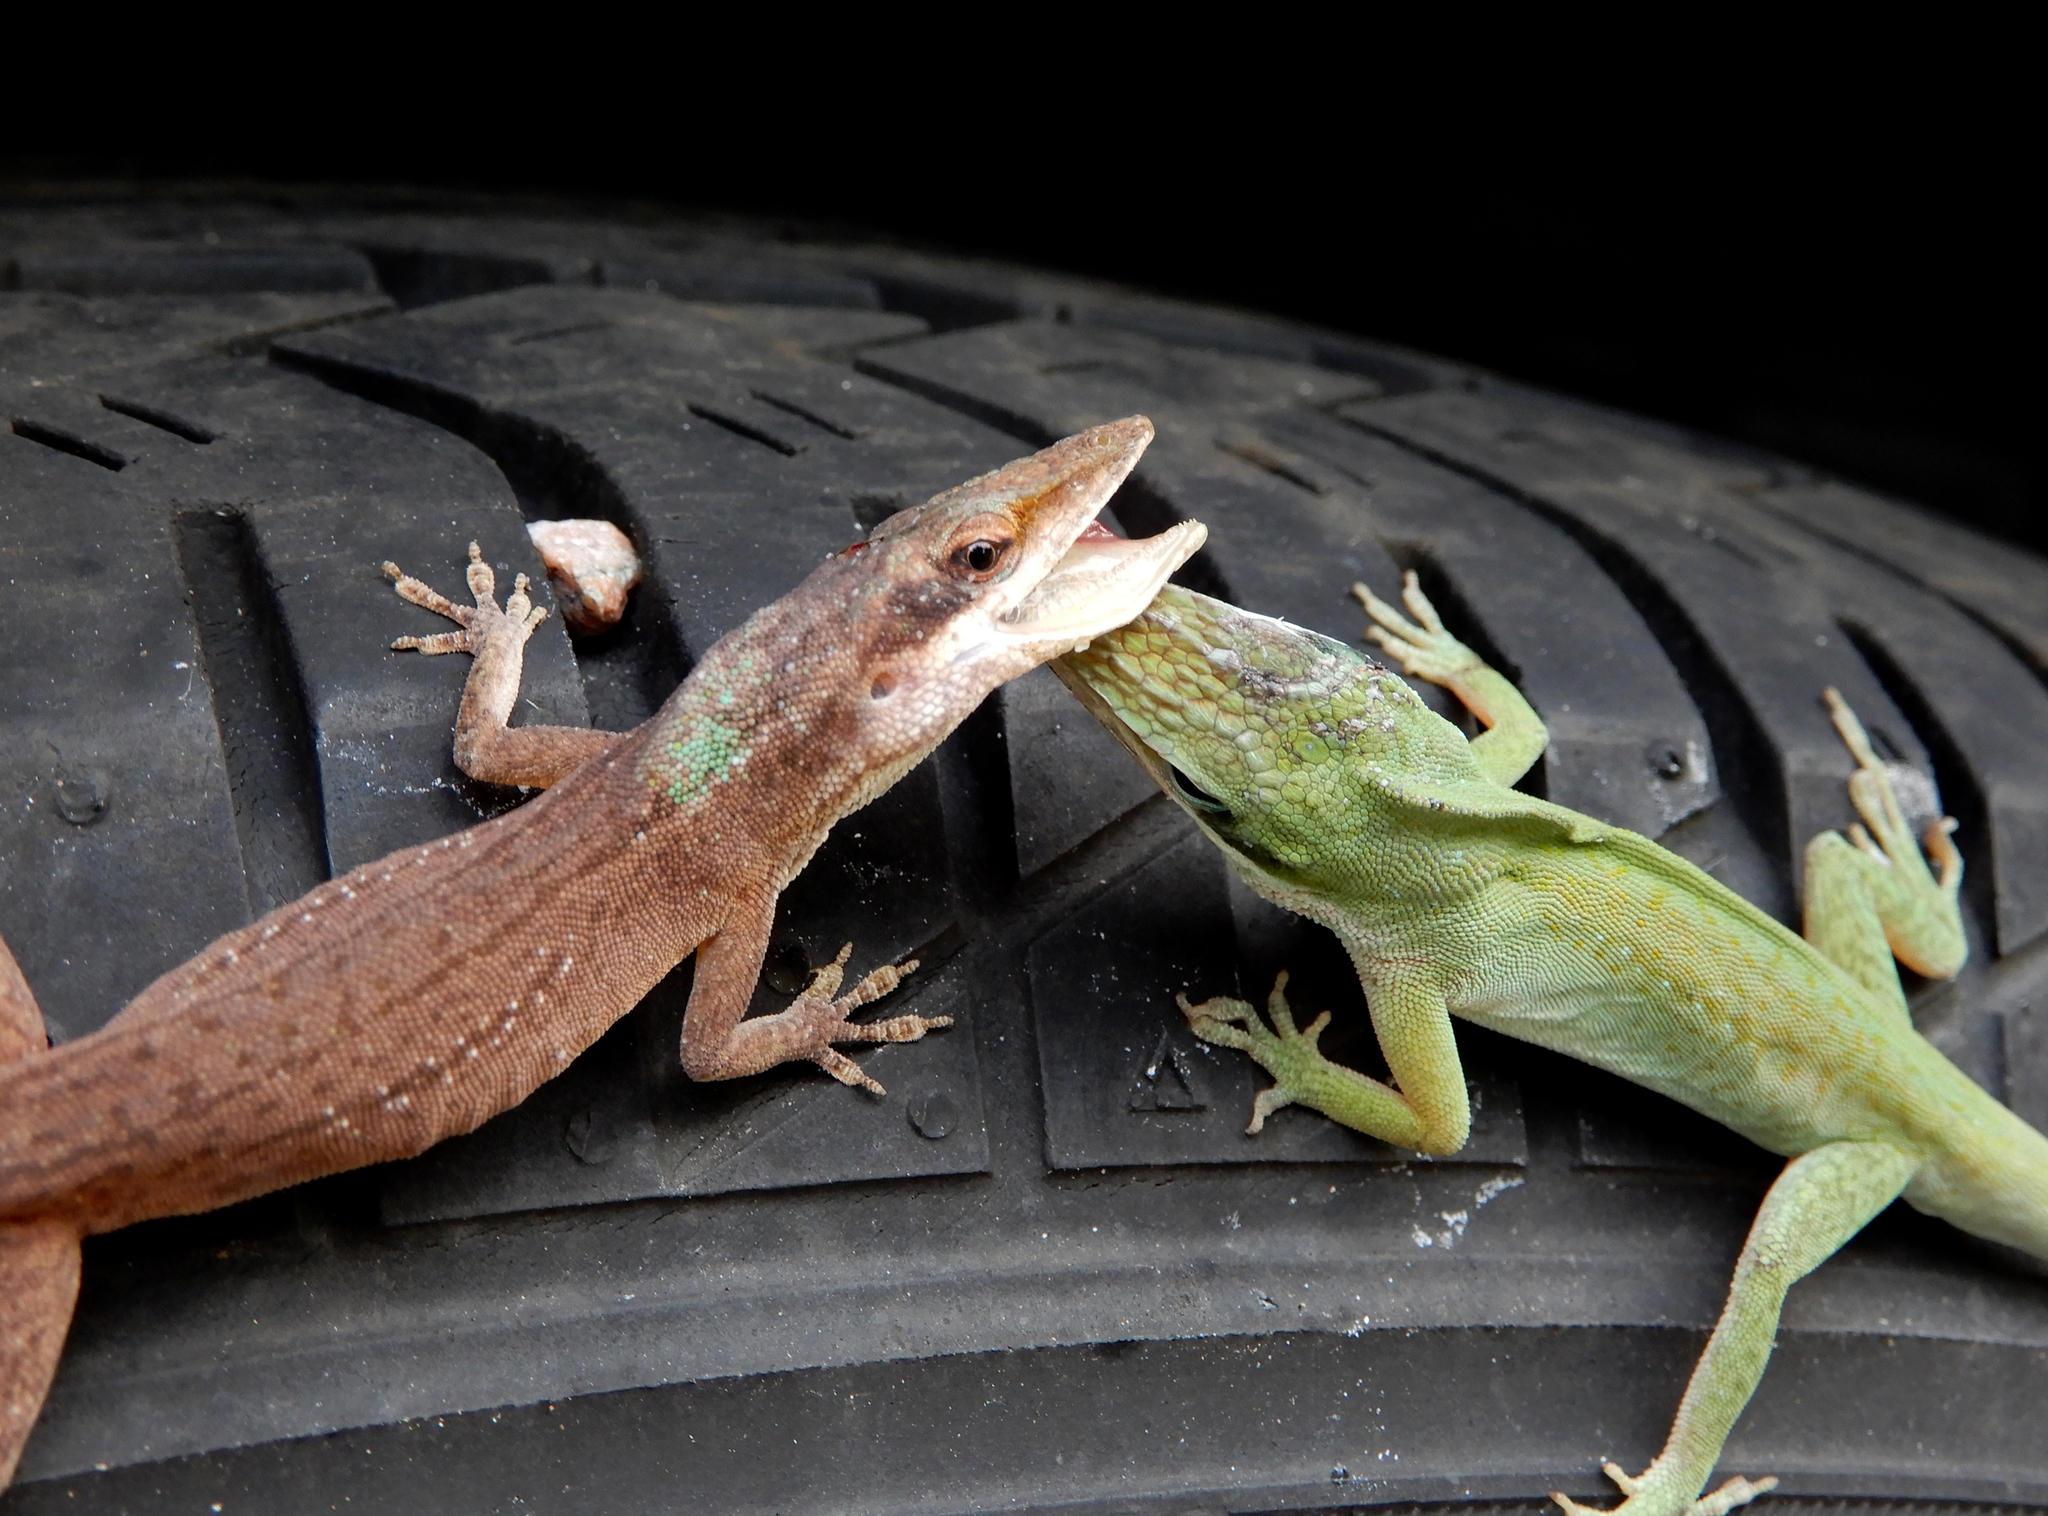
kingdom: Animalia
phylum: Chordata
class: Squamata
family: Dactyloidae
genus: Anolis
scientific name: Anolis carolinensis
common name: Green anole
